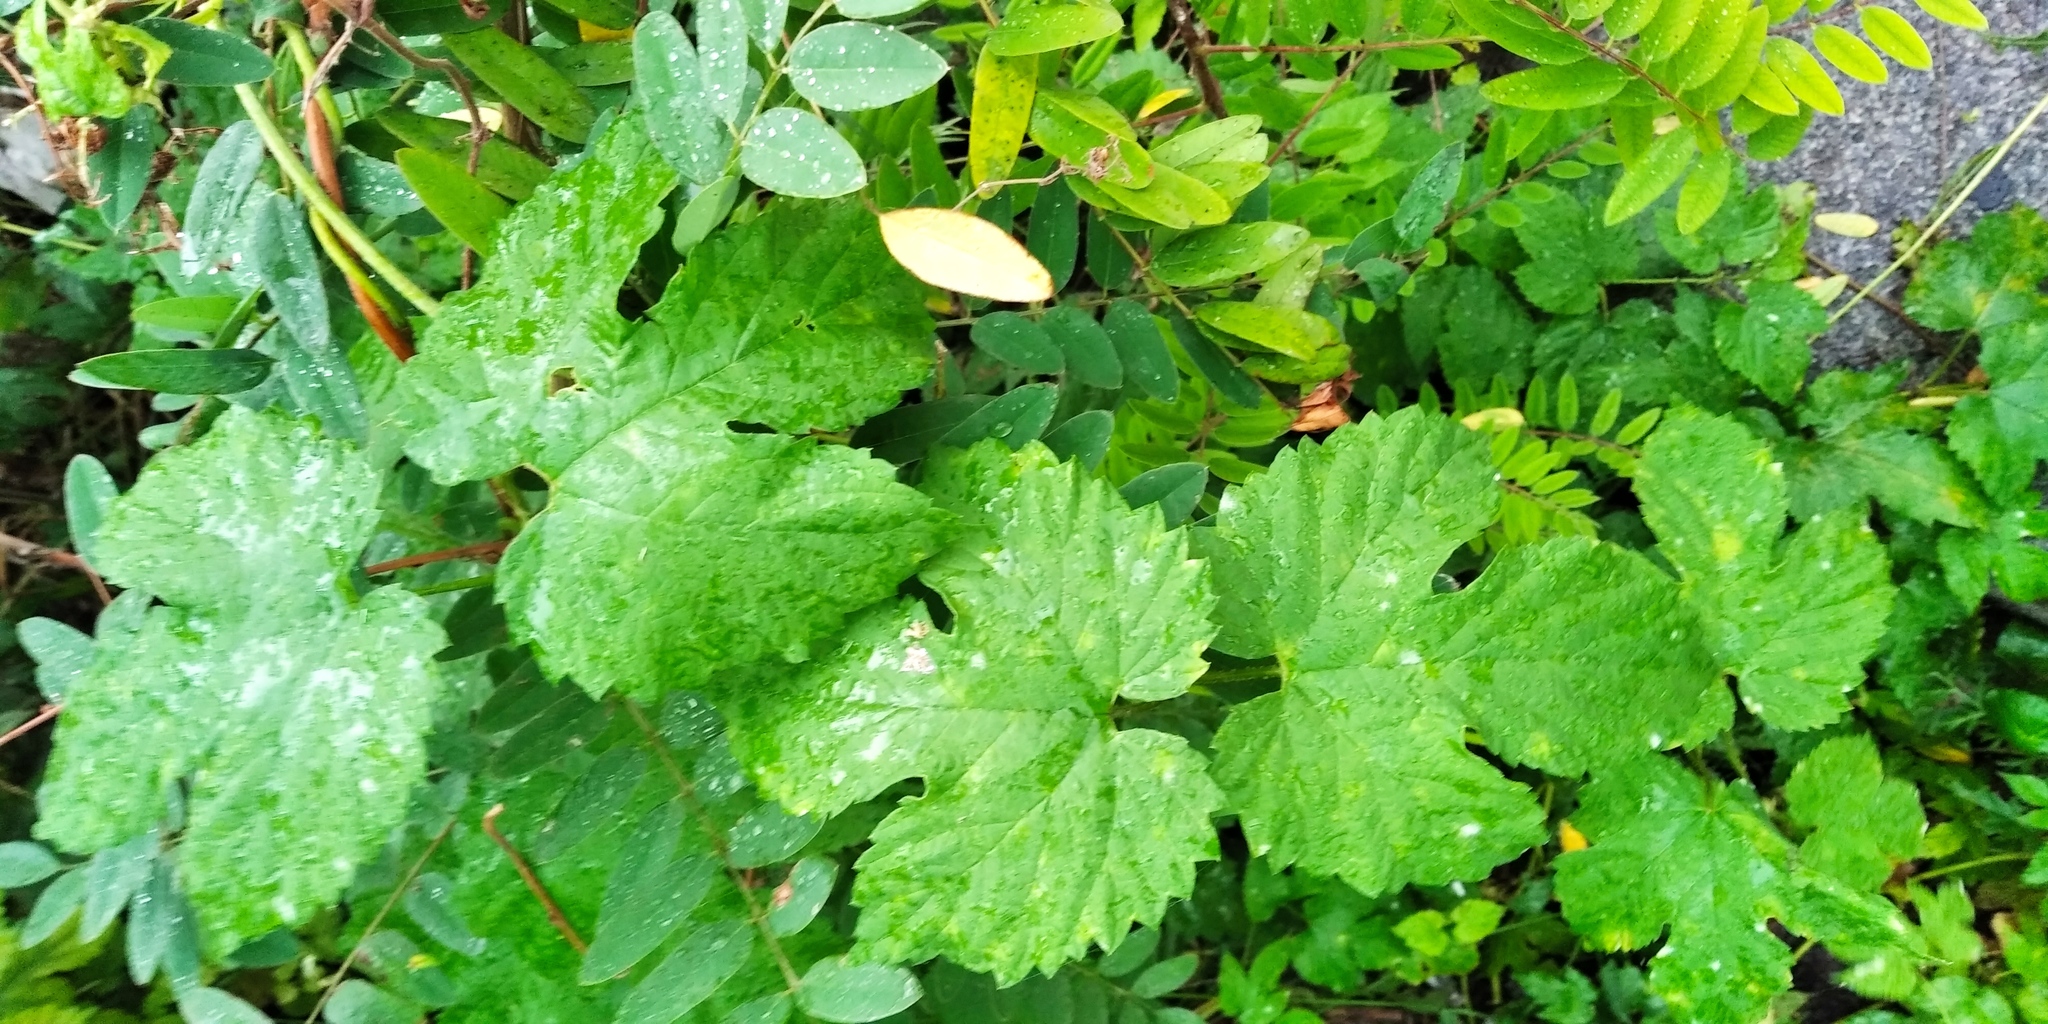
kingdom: Plantae
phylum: Tracheophyta
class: Magnoliopsida
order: Rosales
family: Cannabaceae
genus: Humulus
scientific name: Humulus lupulus
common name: Hop
